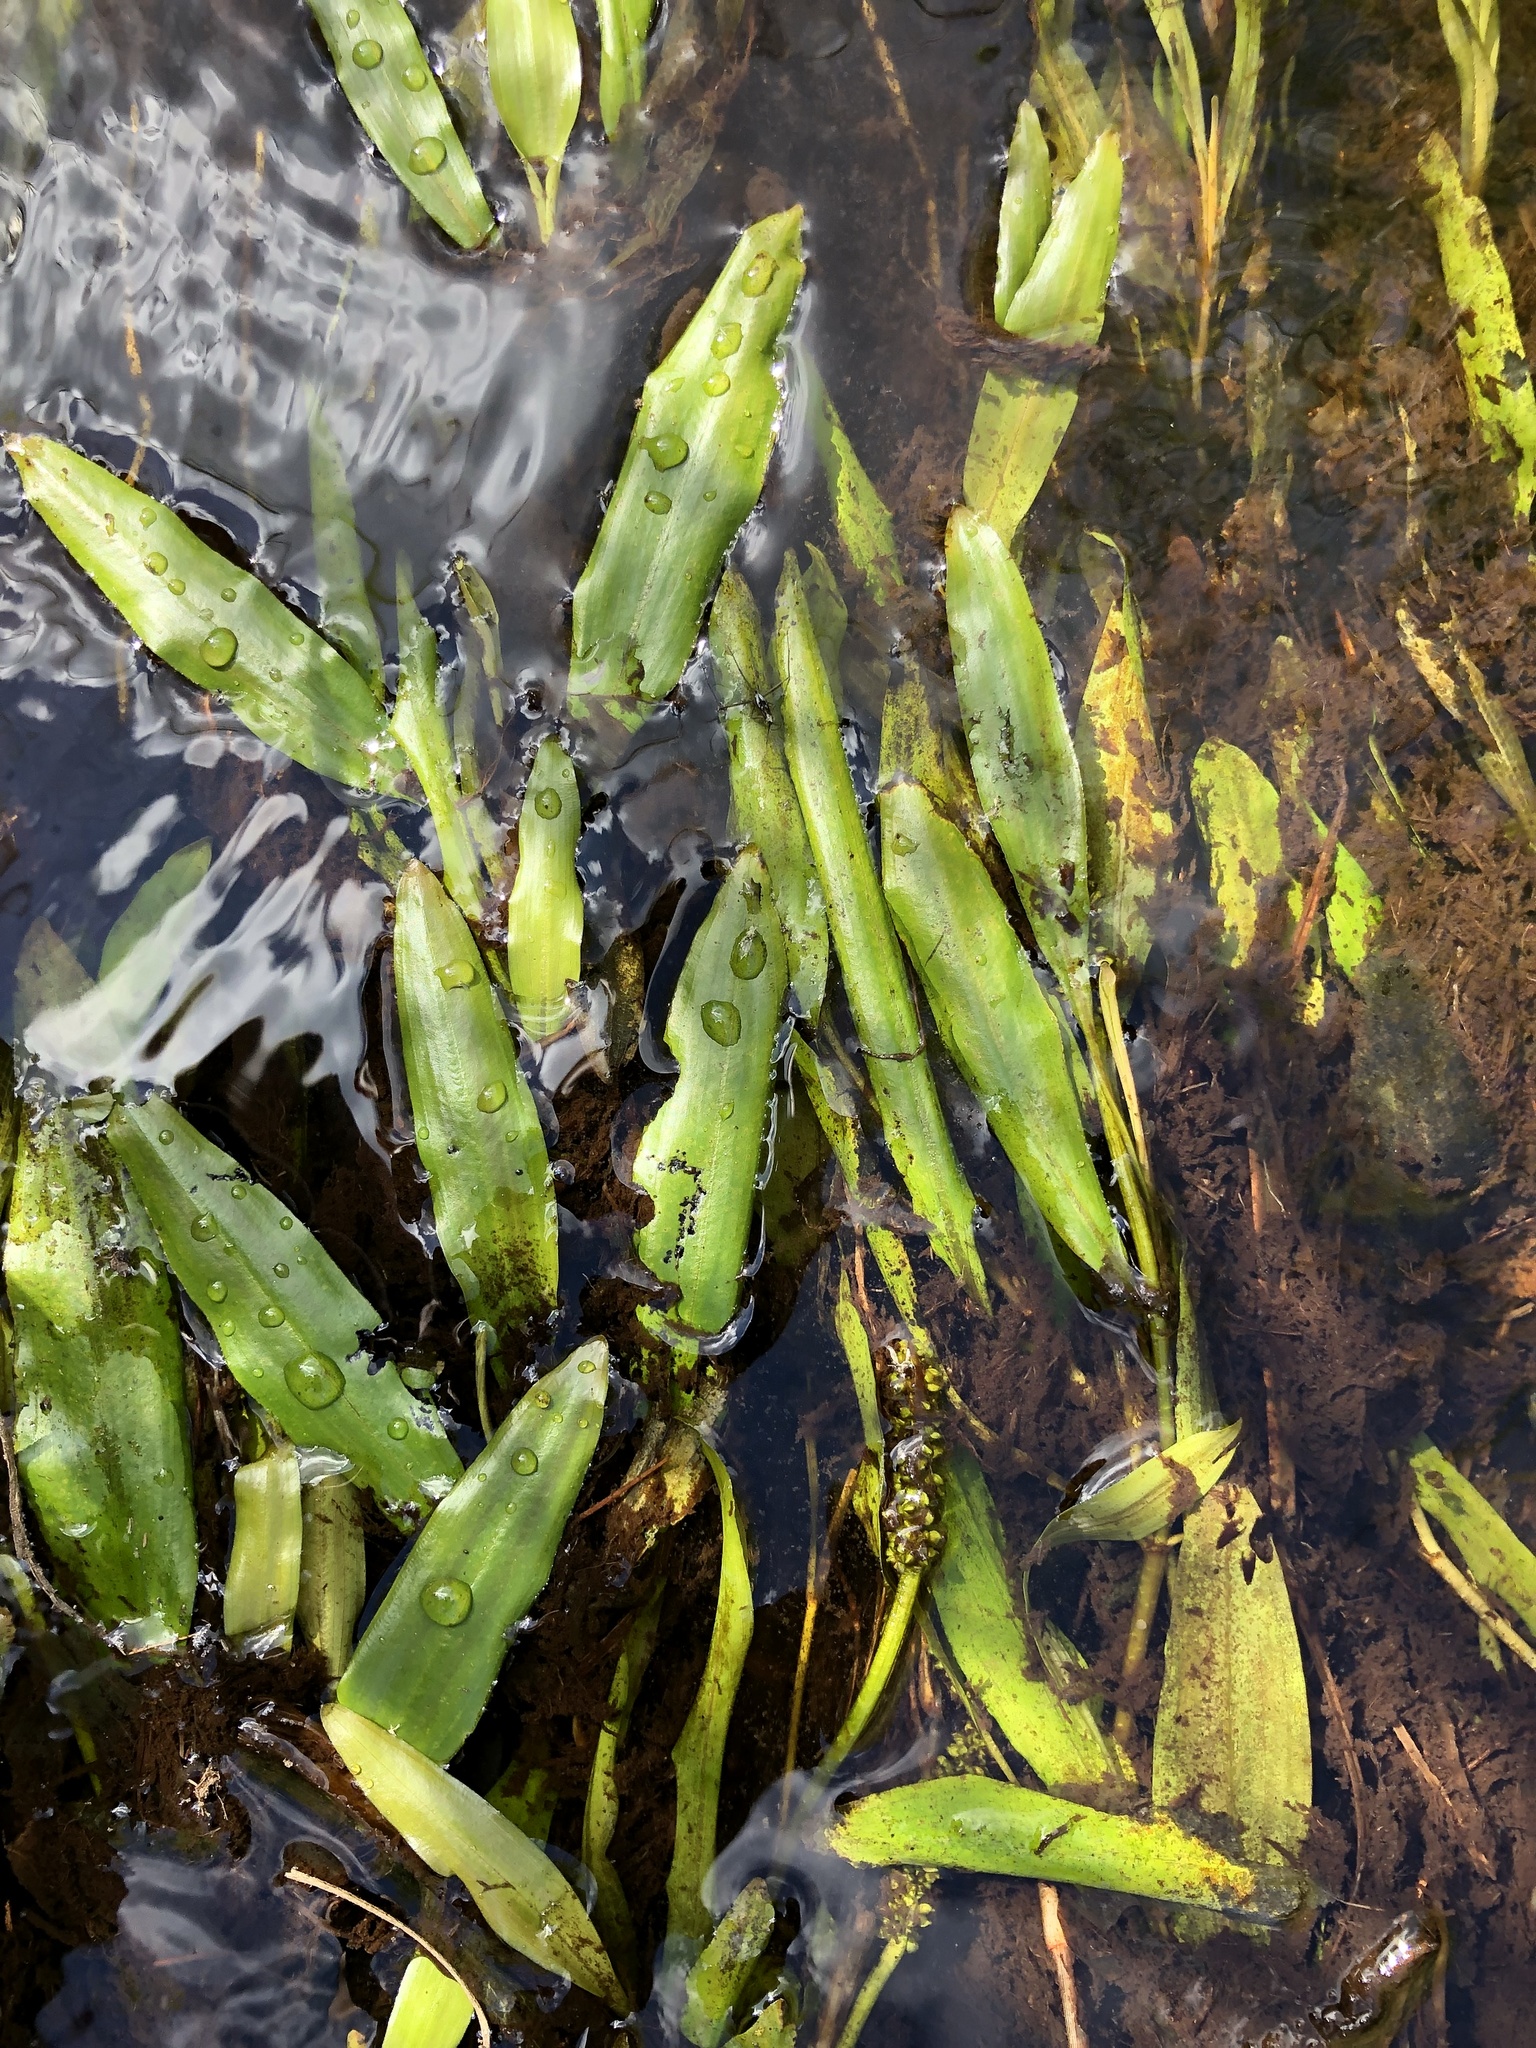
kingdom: Plantae
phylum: Tracheophyta
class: Liliopsida
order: Alismatales
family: Potamogetonaceae
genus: Potamogeton
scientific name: Potamogeton alpinus
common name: Red pondweed
